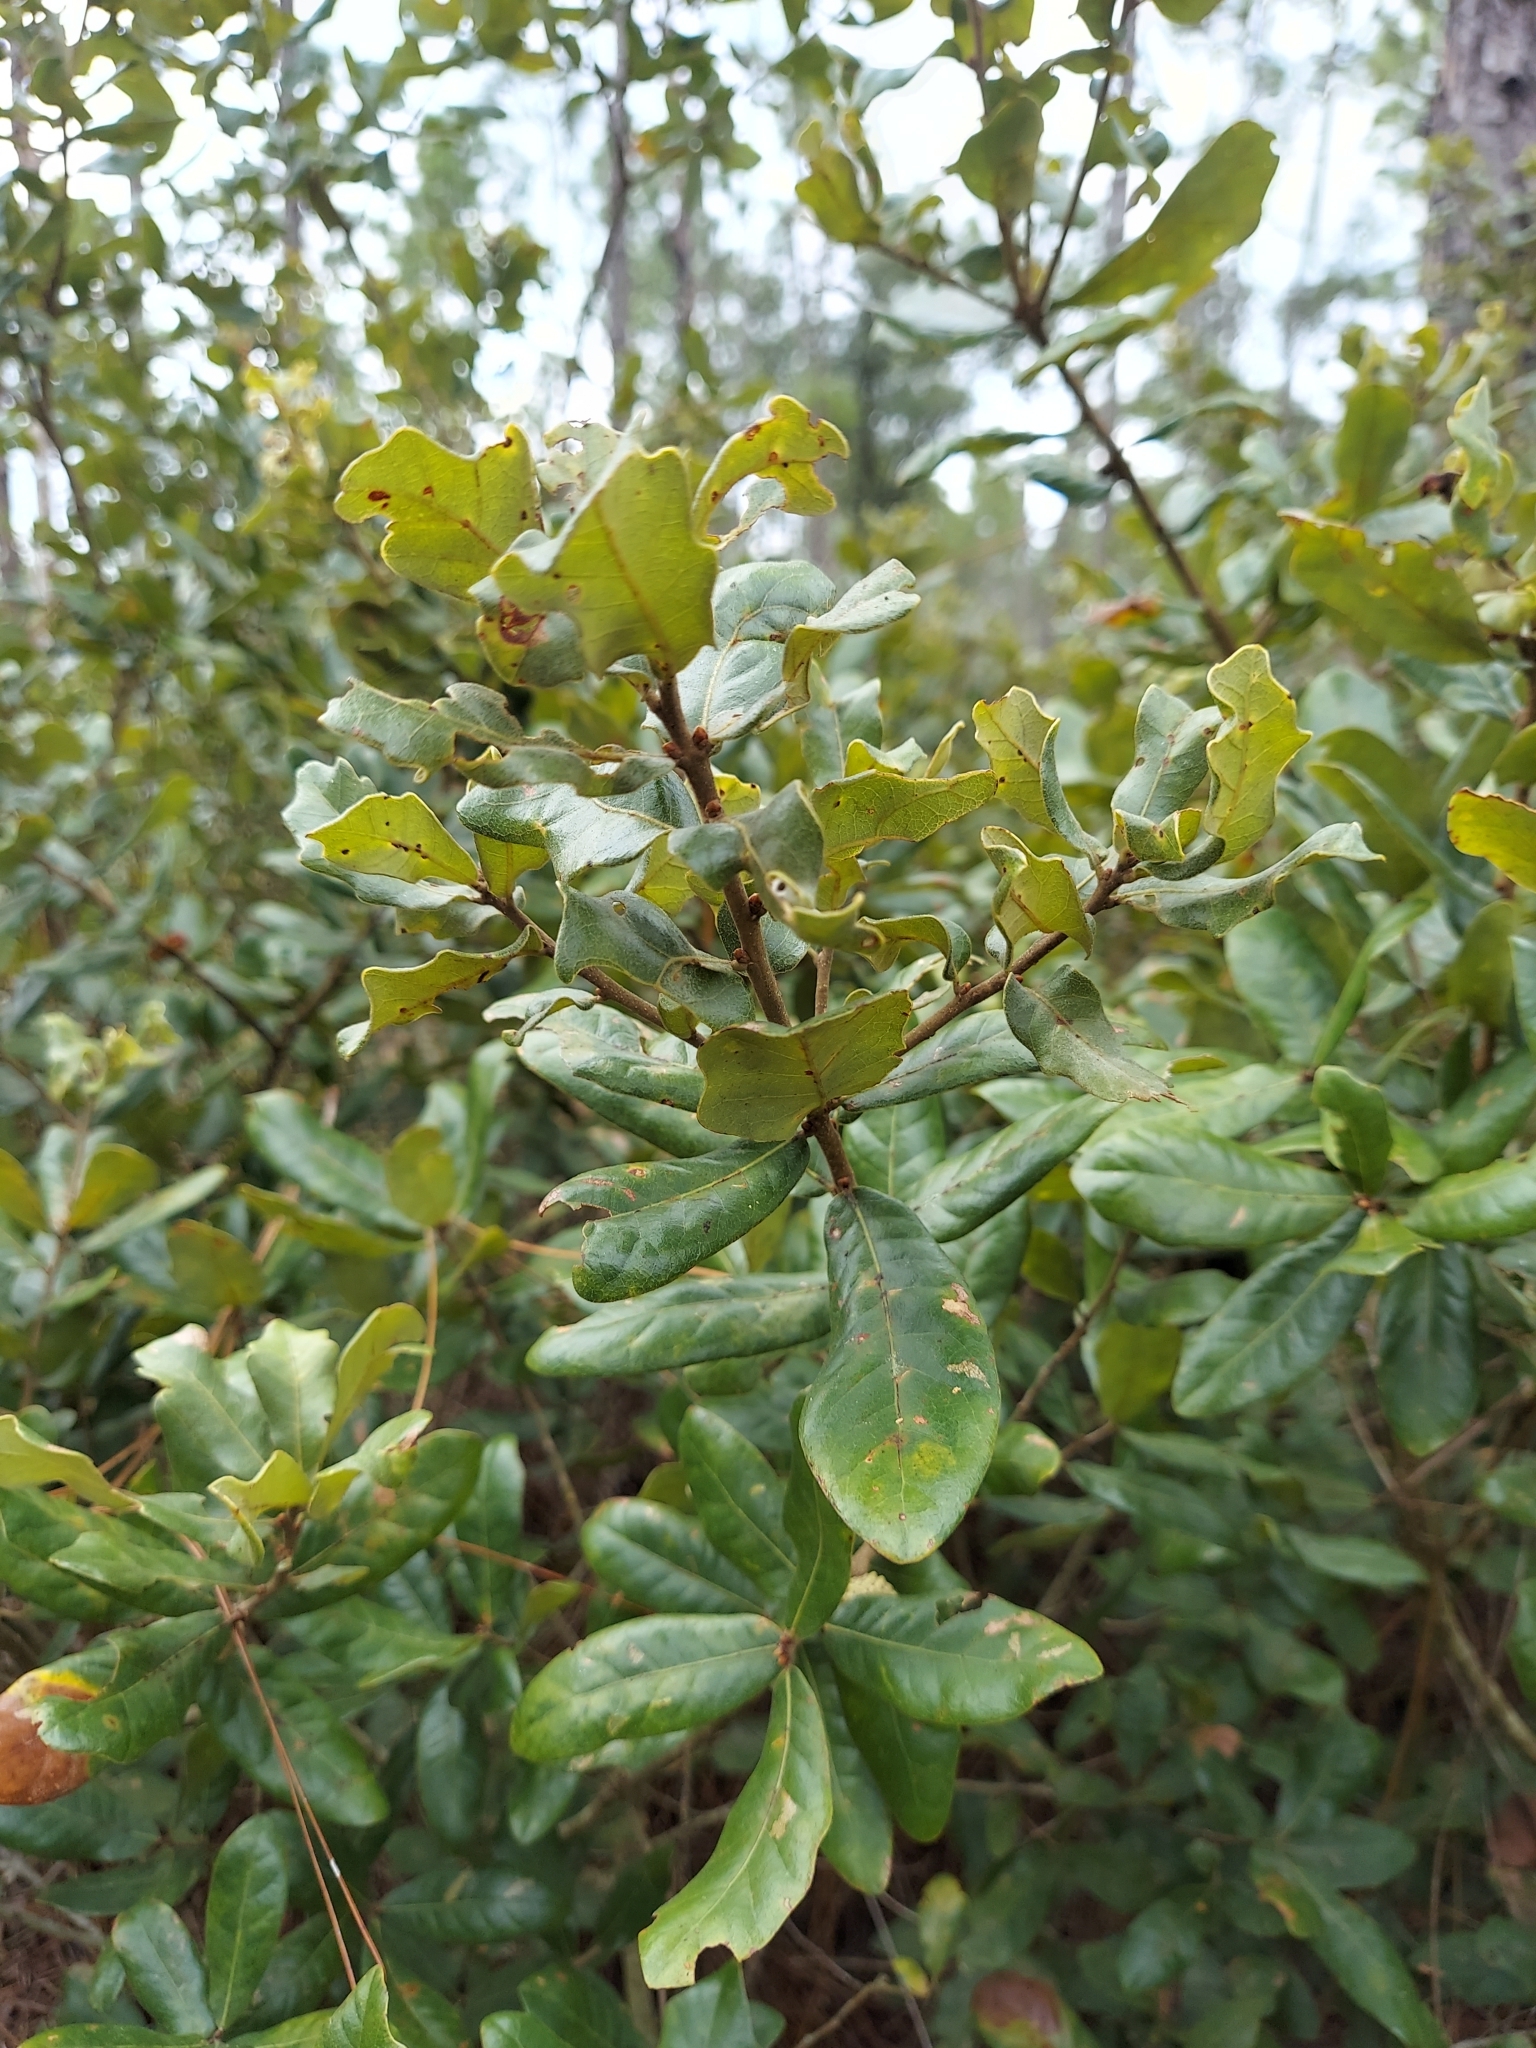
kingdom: Plantae
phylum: Tracheophyta
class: Magnoliopsida
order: Fagales
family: Fagaceae
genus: Quercus
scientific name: Quercus chapmanii
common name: Chapman oak
